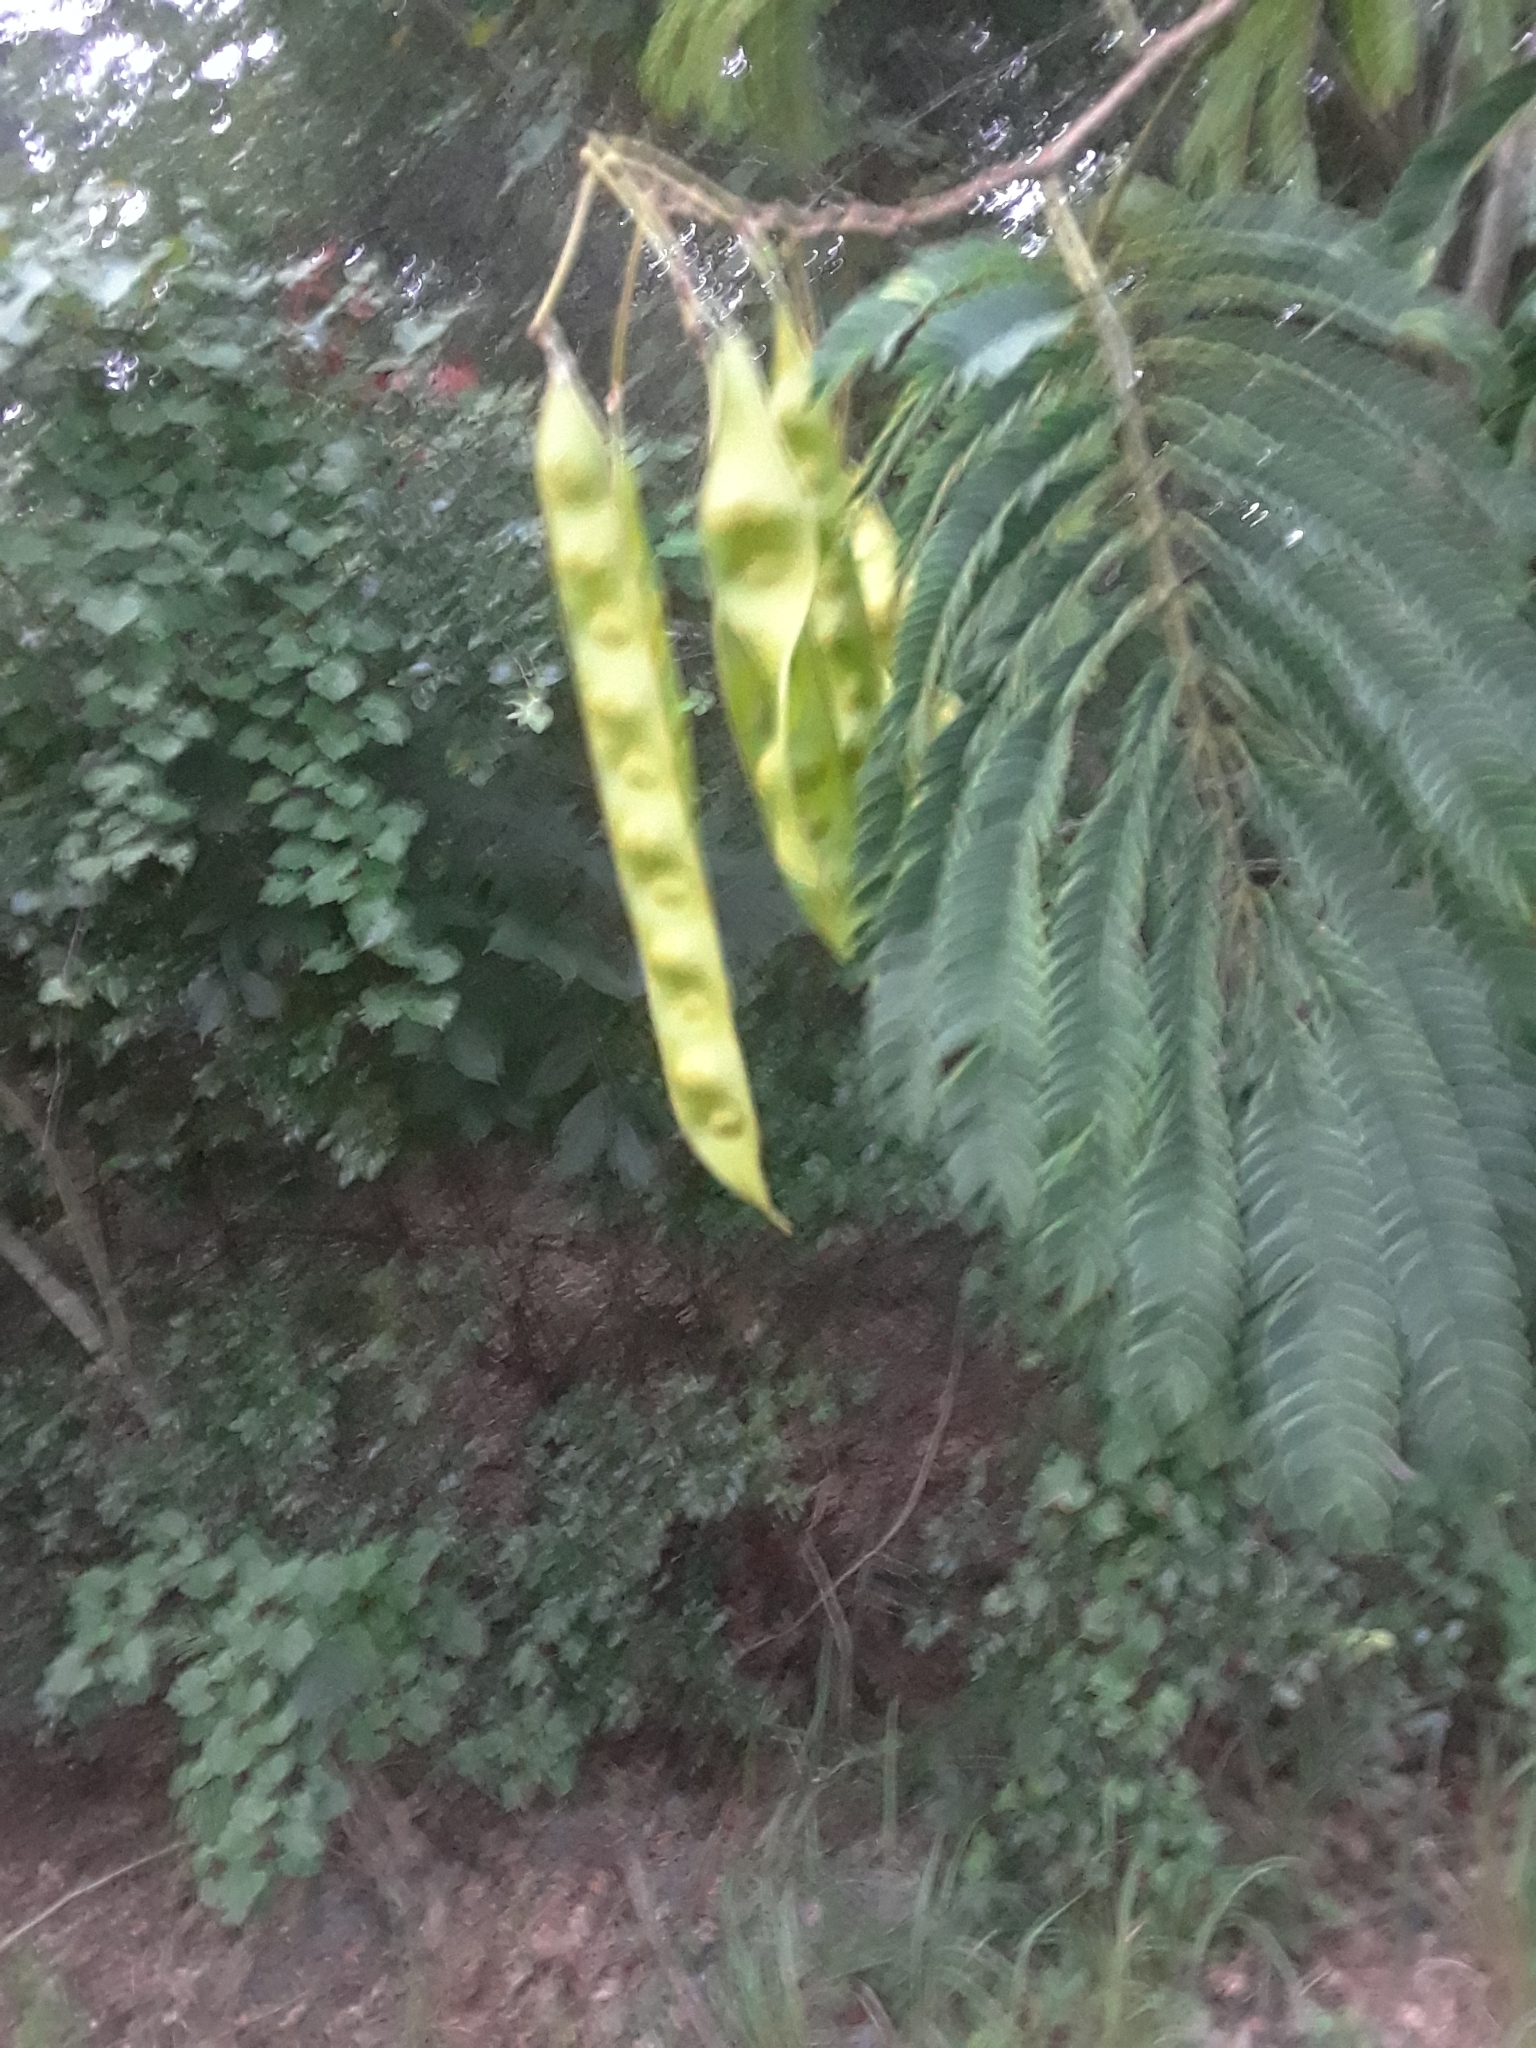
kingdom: Plantae
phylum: Tracheophyta
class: Magnoliopsida
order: Fabales
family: Fabaceae
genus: Albizia
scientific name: Albizia julibrissin
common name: Silktree
